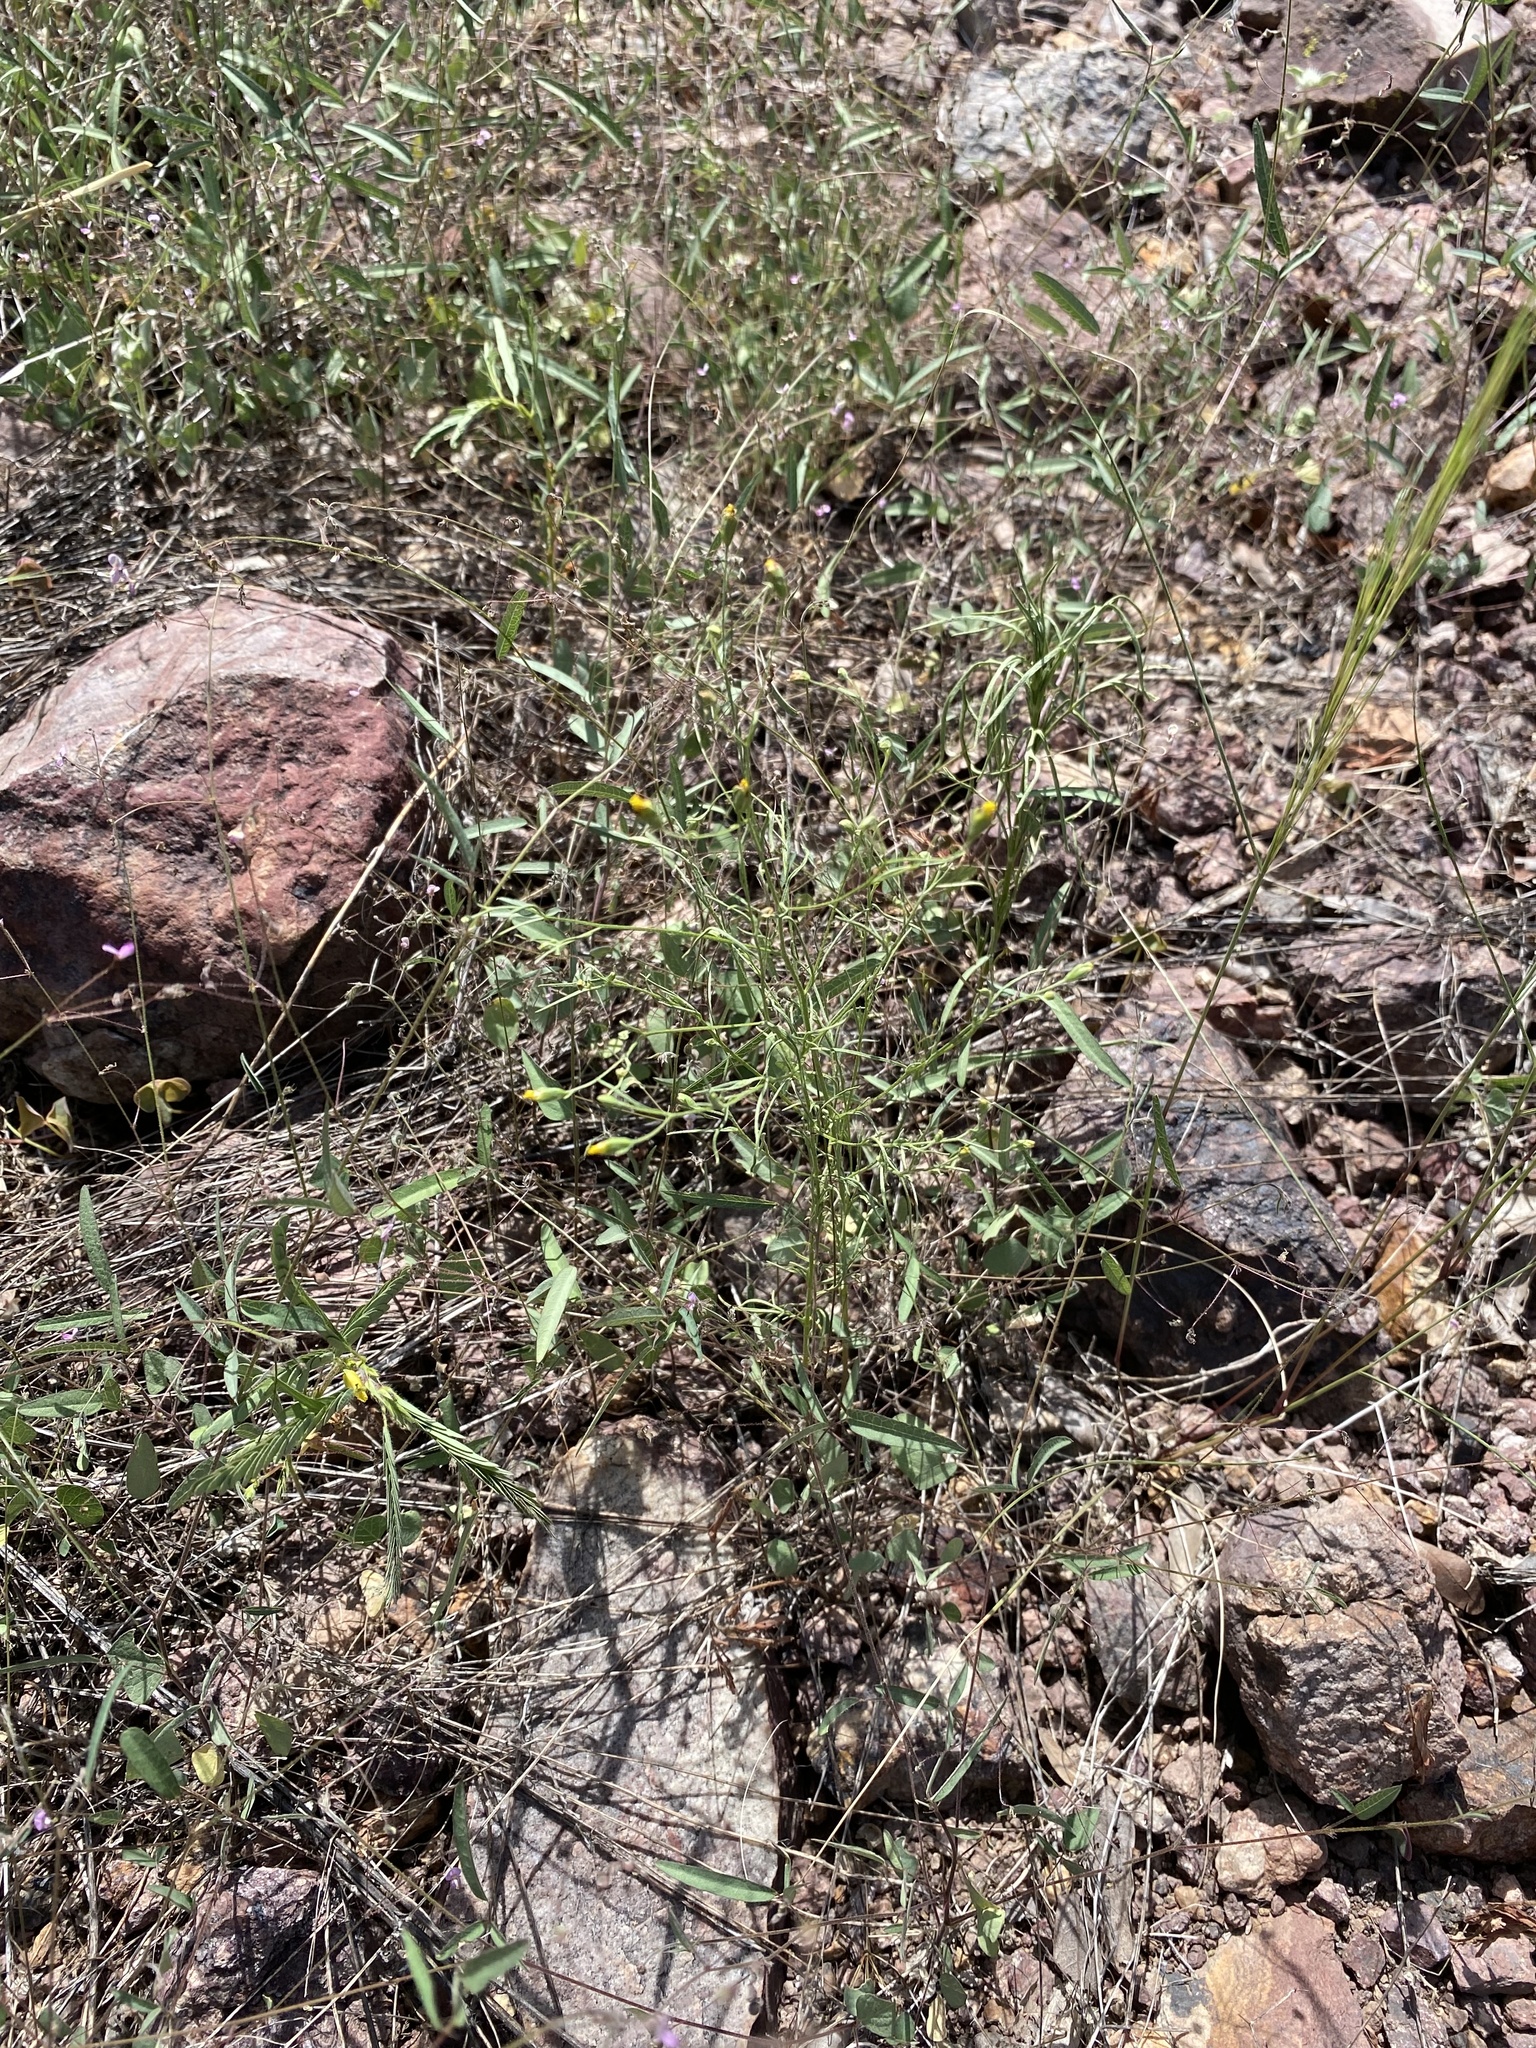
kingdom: Plantae
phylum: Tracheophyta
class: Magnoliopsida
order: Asterales
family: Asteraceae
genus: Schkuhria
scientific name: Schkuhria pinnata
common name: Dwarf marigold
